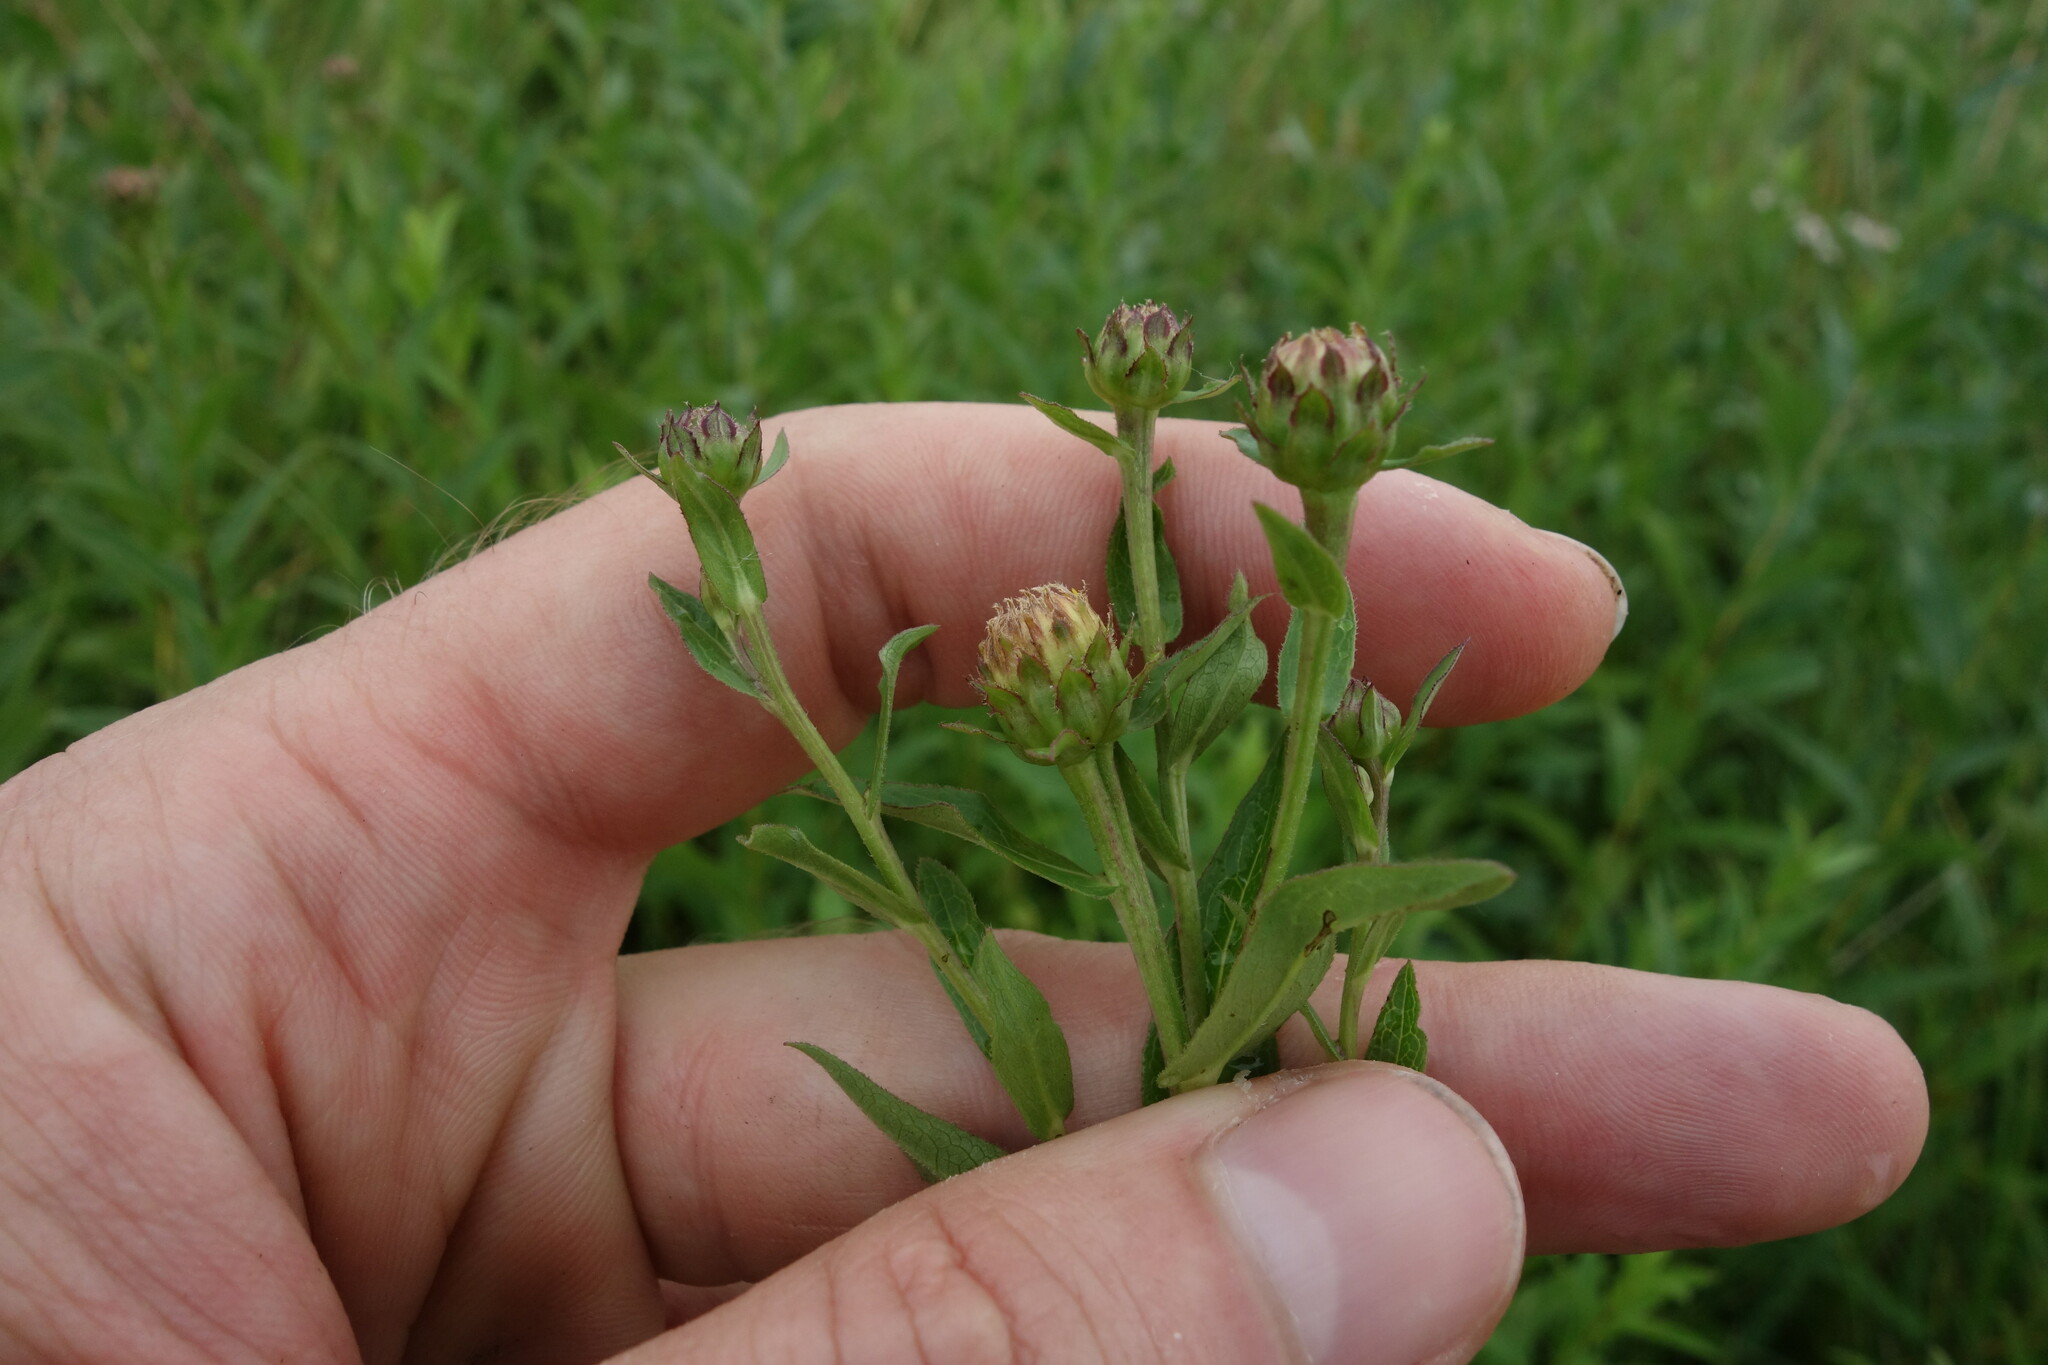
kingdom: Plantae
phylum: Tracheophyta
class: Magnoliopsida
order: Asterales
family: Asteraceae
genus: Pentanema
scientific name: Pentanema salicinum
